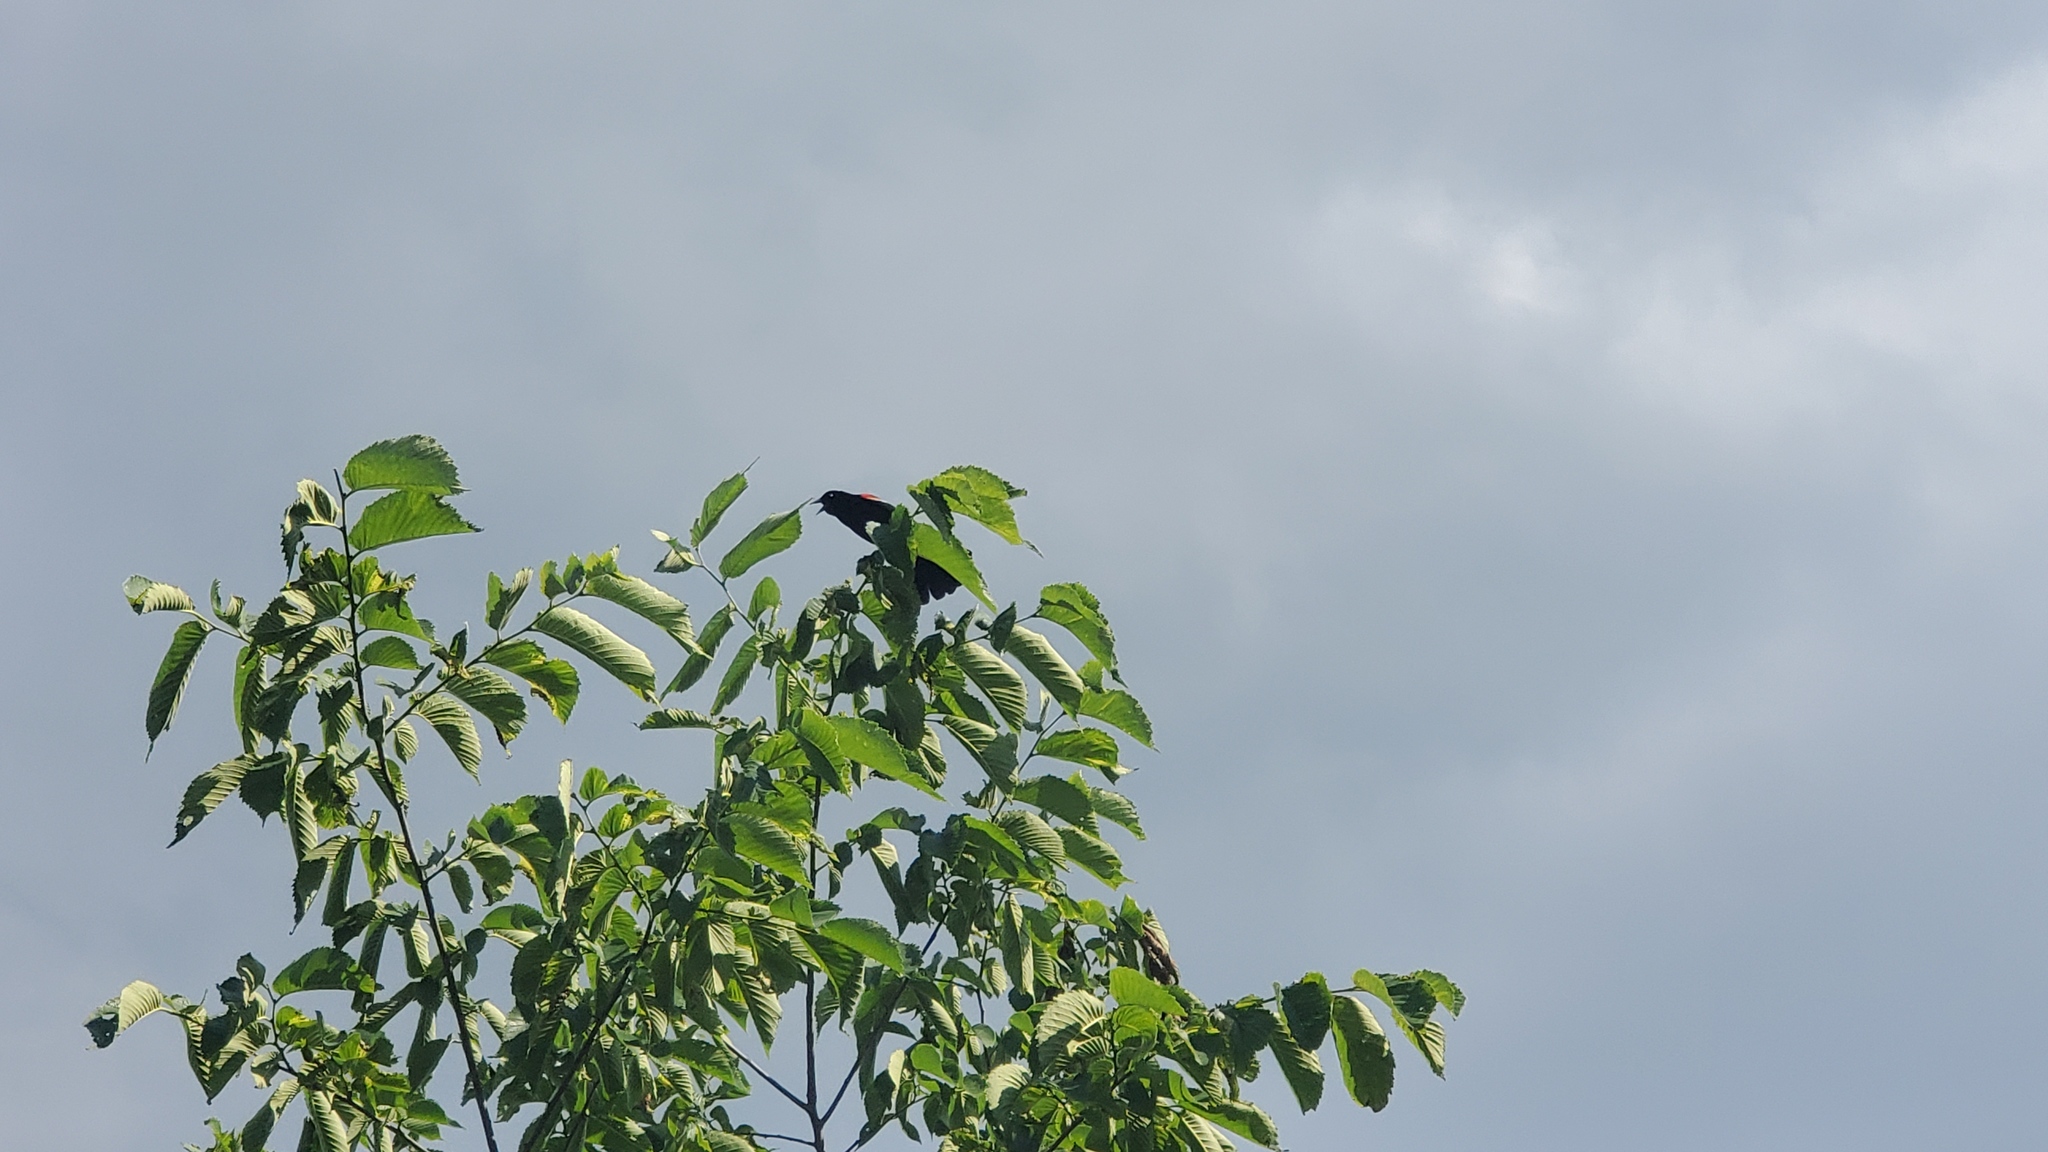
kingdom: Animalia
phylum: Chordata
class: Aves
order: Passeriformes
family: Icteridae
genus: Agelaius
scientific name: Agelaius phoeniceus
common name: Red-winged blackbird
